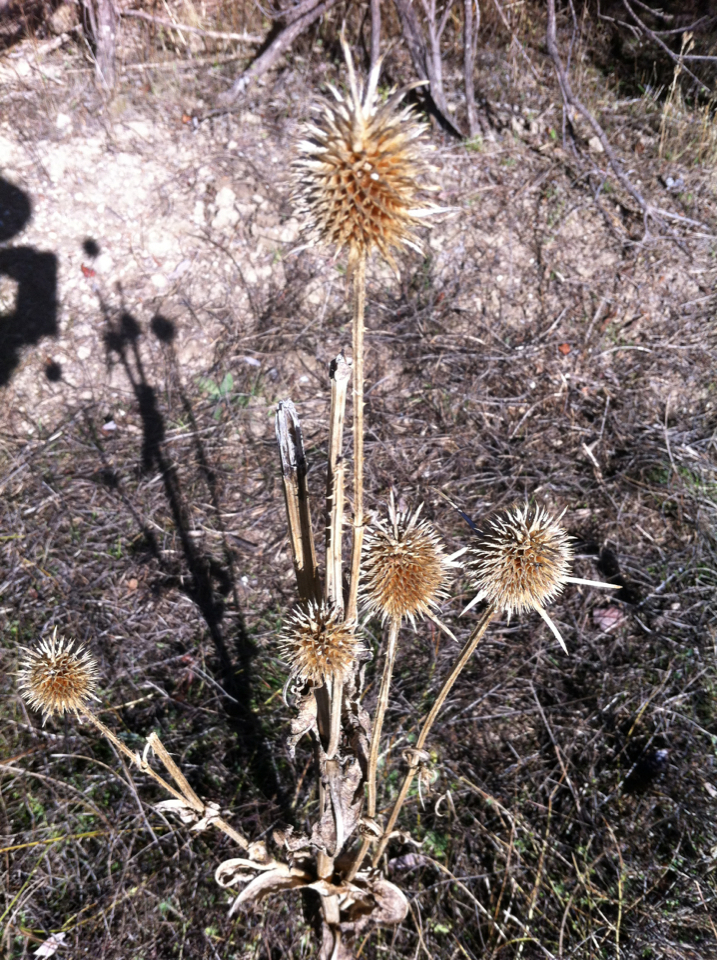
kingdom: Plantae
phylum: Tracheophyta
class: Magnoliopsida
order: Dipsacales
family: Caprifoliaceae
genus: Dipsacus
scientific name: Dipsacus sativus
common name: Fuller's teasel
